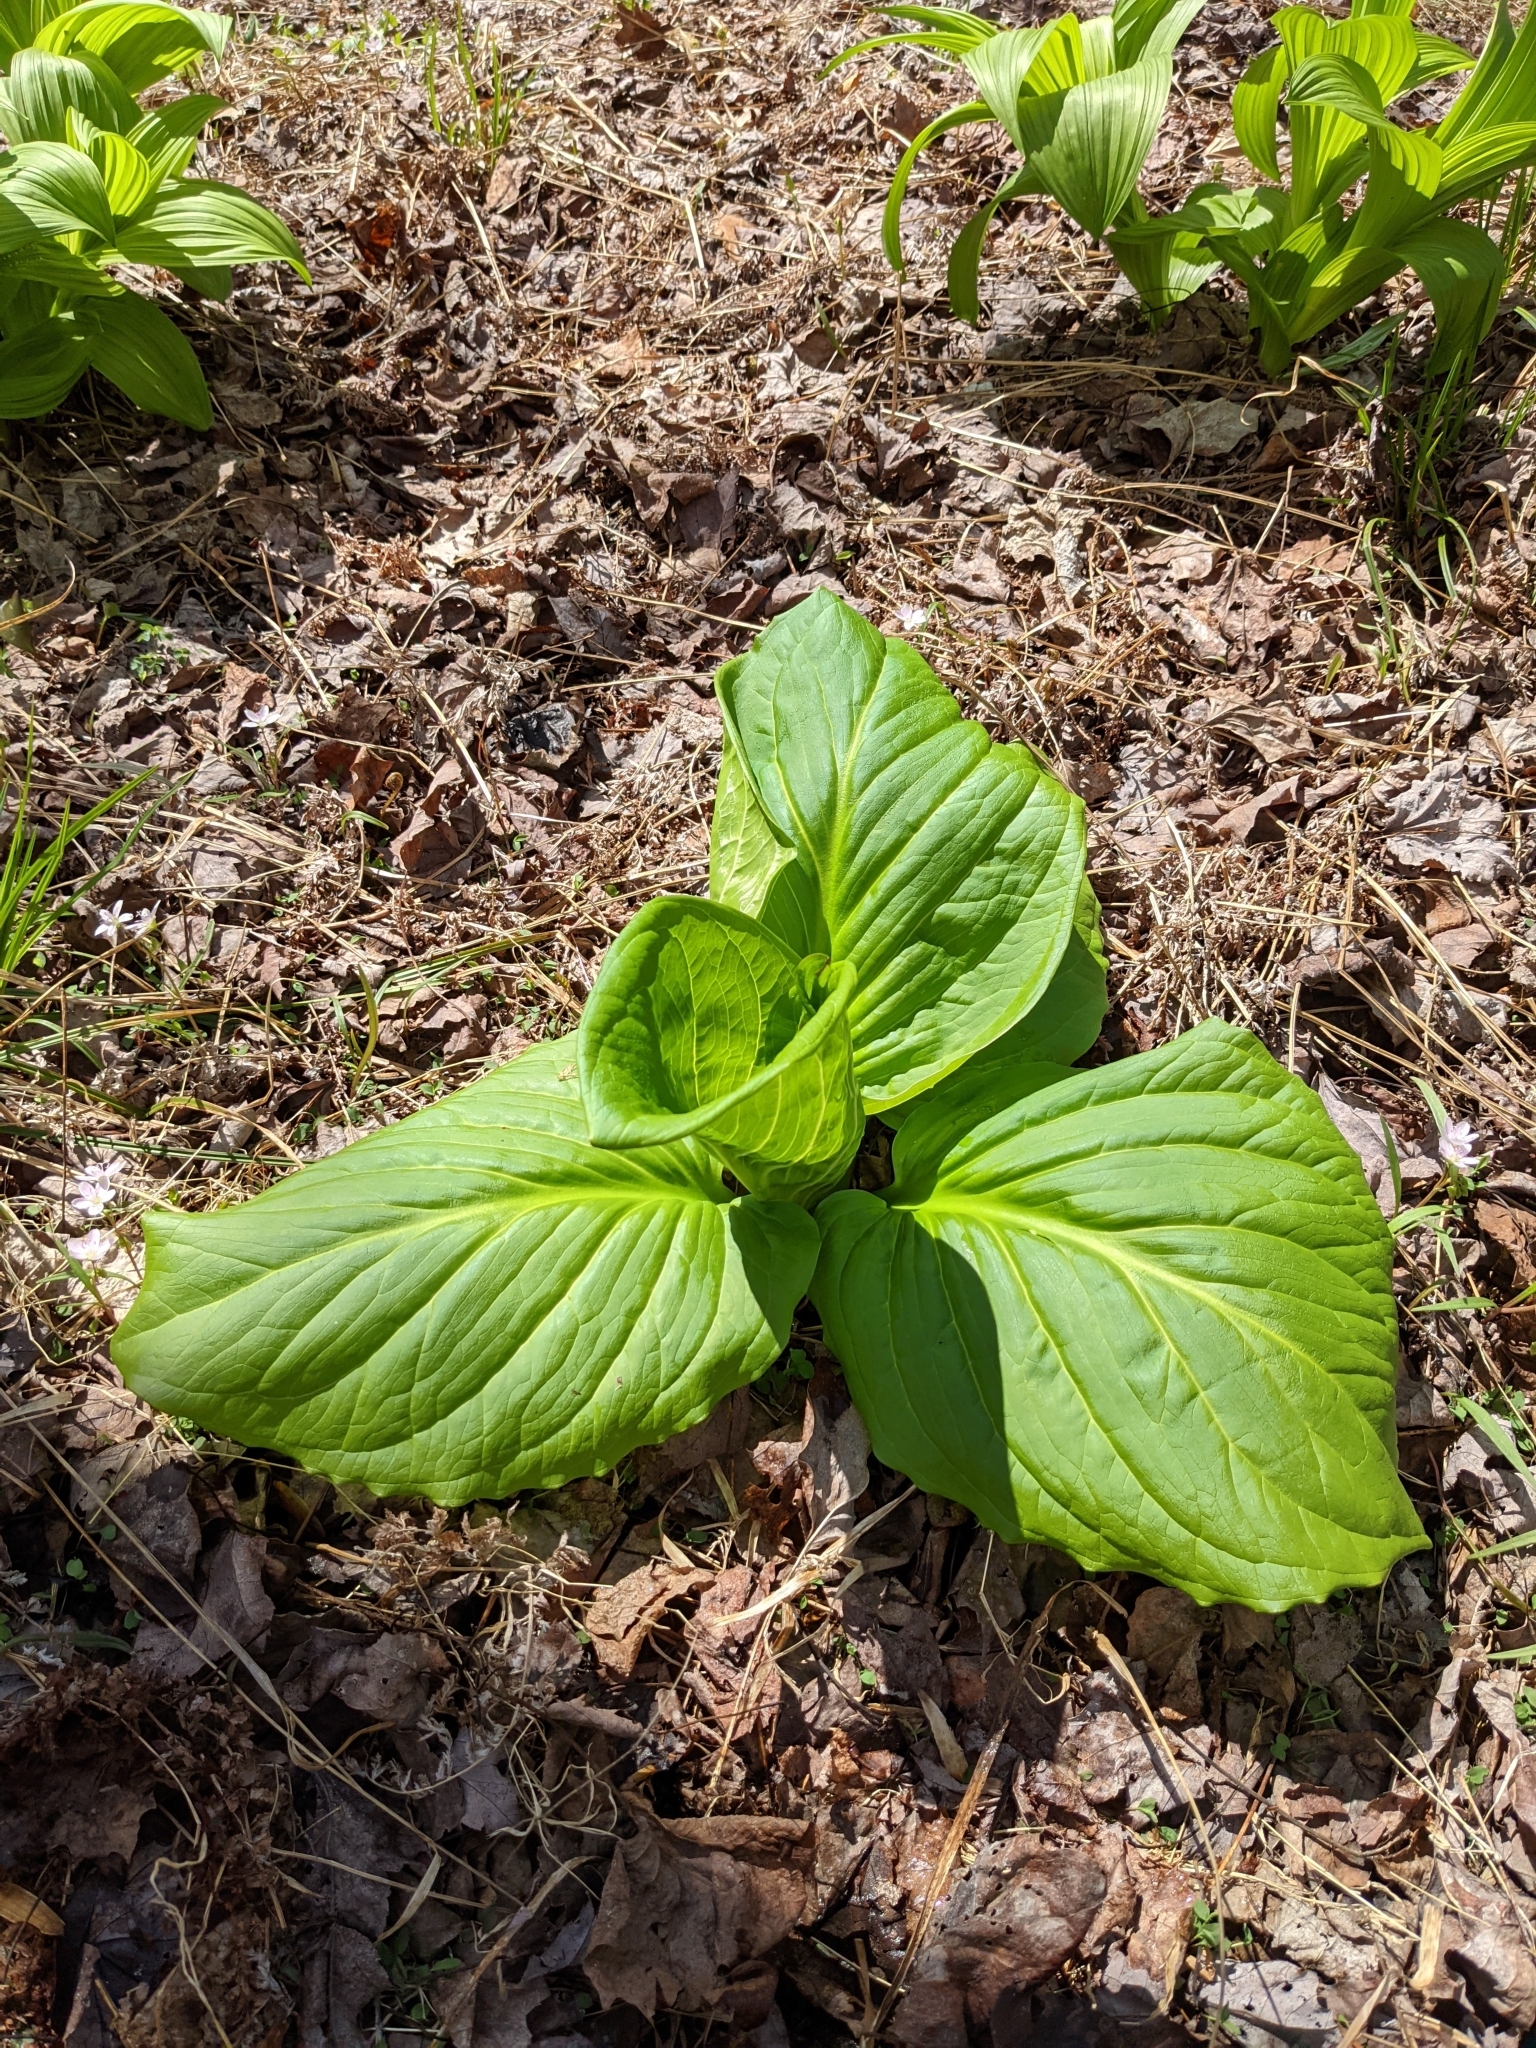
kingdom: Plantae
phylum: Tracheophyta
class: Liliopsida
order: Alismatales
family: Araceae
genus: Symplocarpus
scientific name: Symplocarpus foetidus
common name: Eastern skunk cabbage
